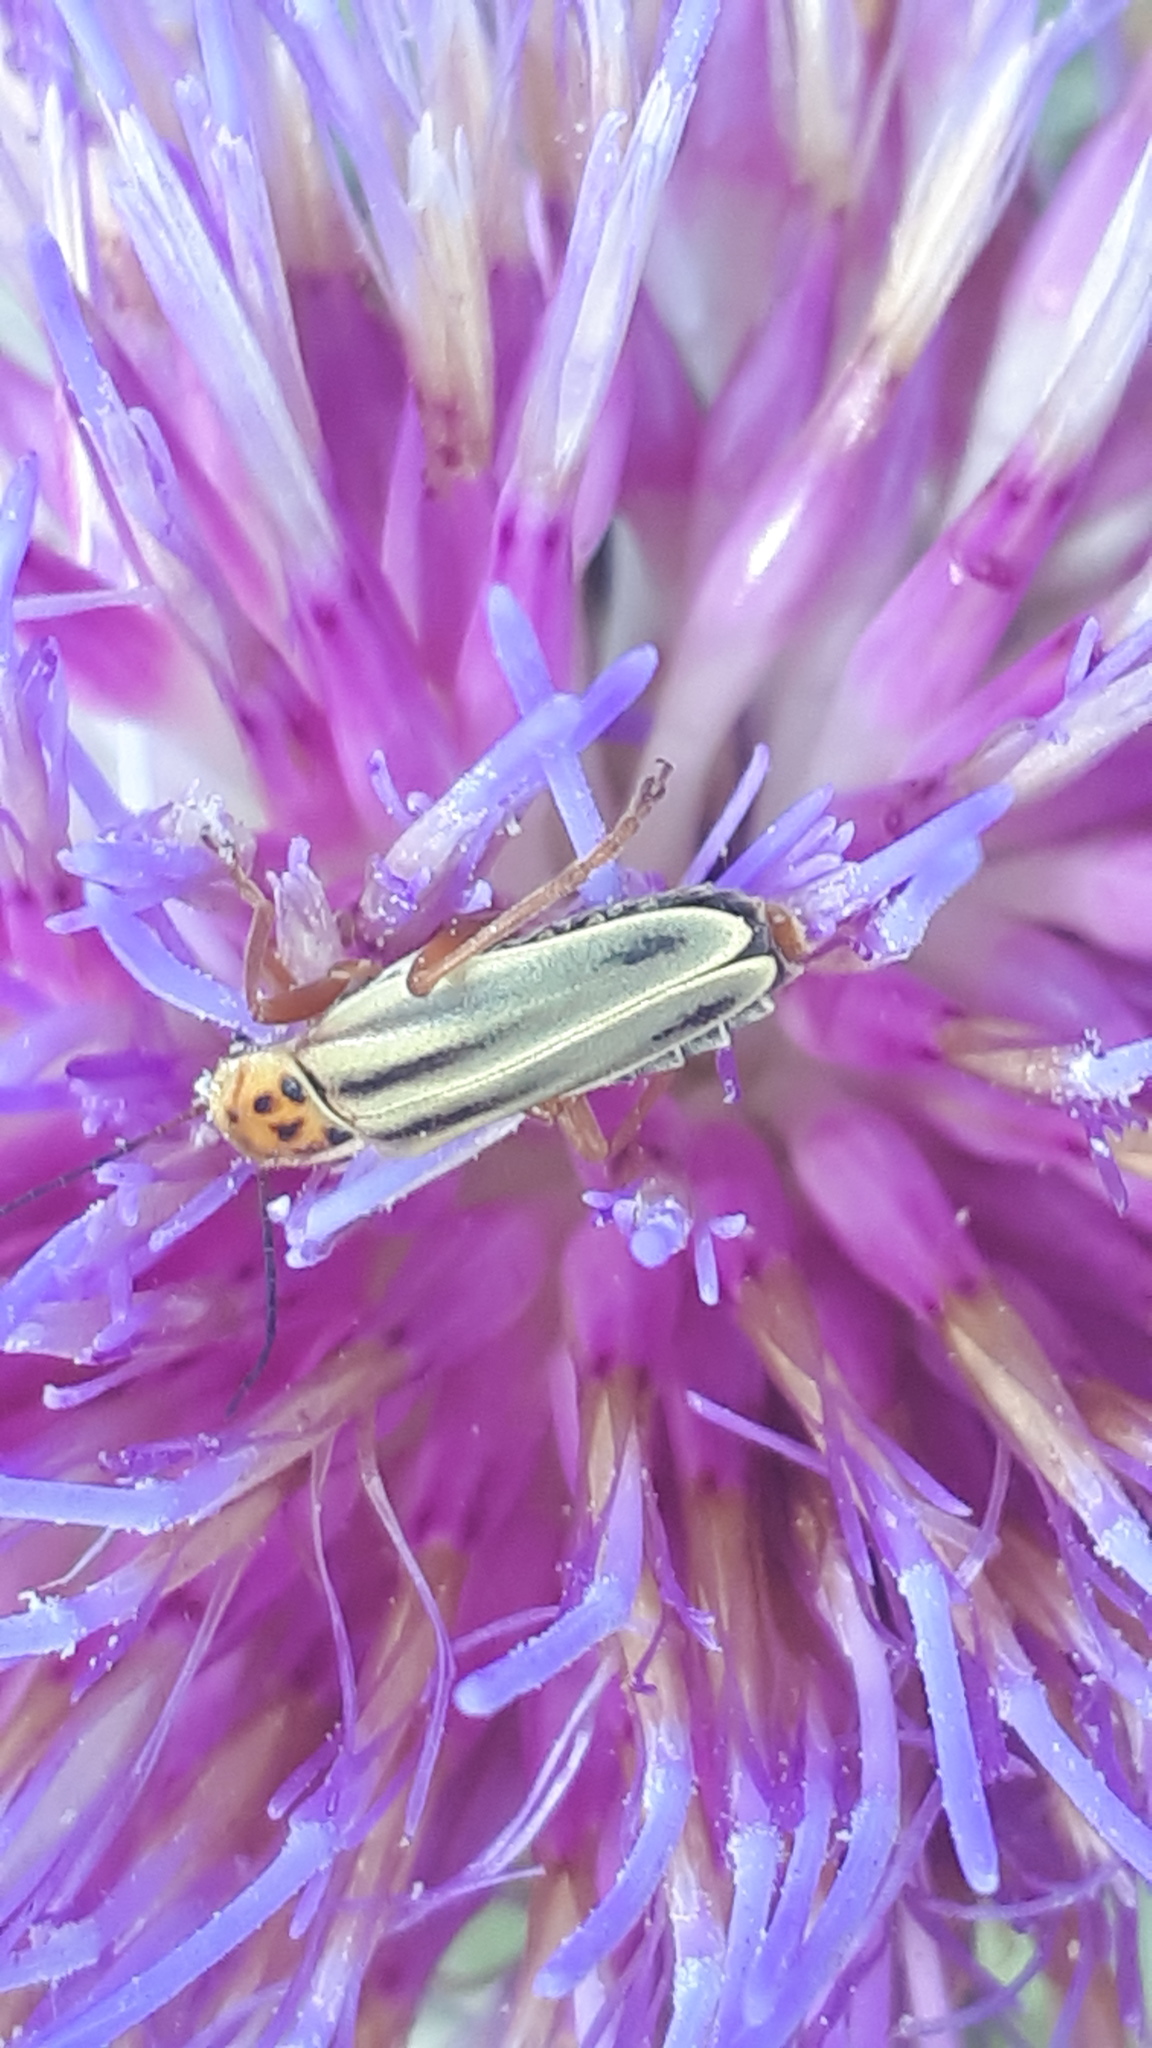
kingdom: Animalia
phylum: Arthropoda
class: Insecta
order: Coleoptera
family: Cantharidae
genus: Chauliognathus
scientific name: Chauliognathus
